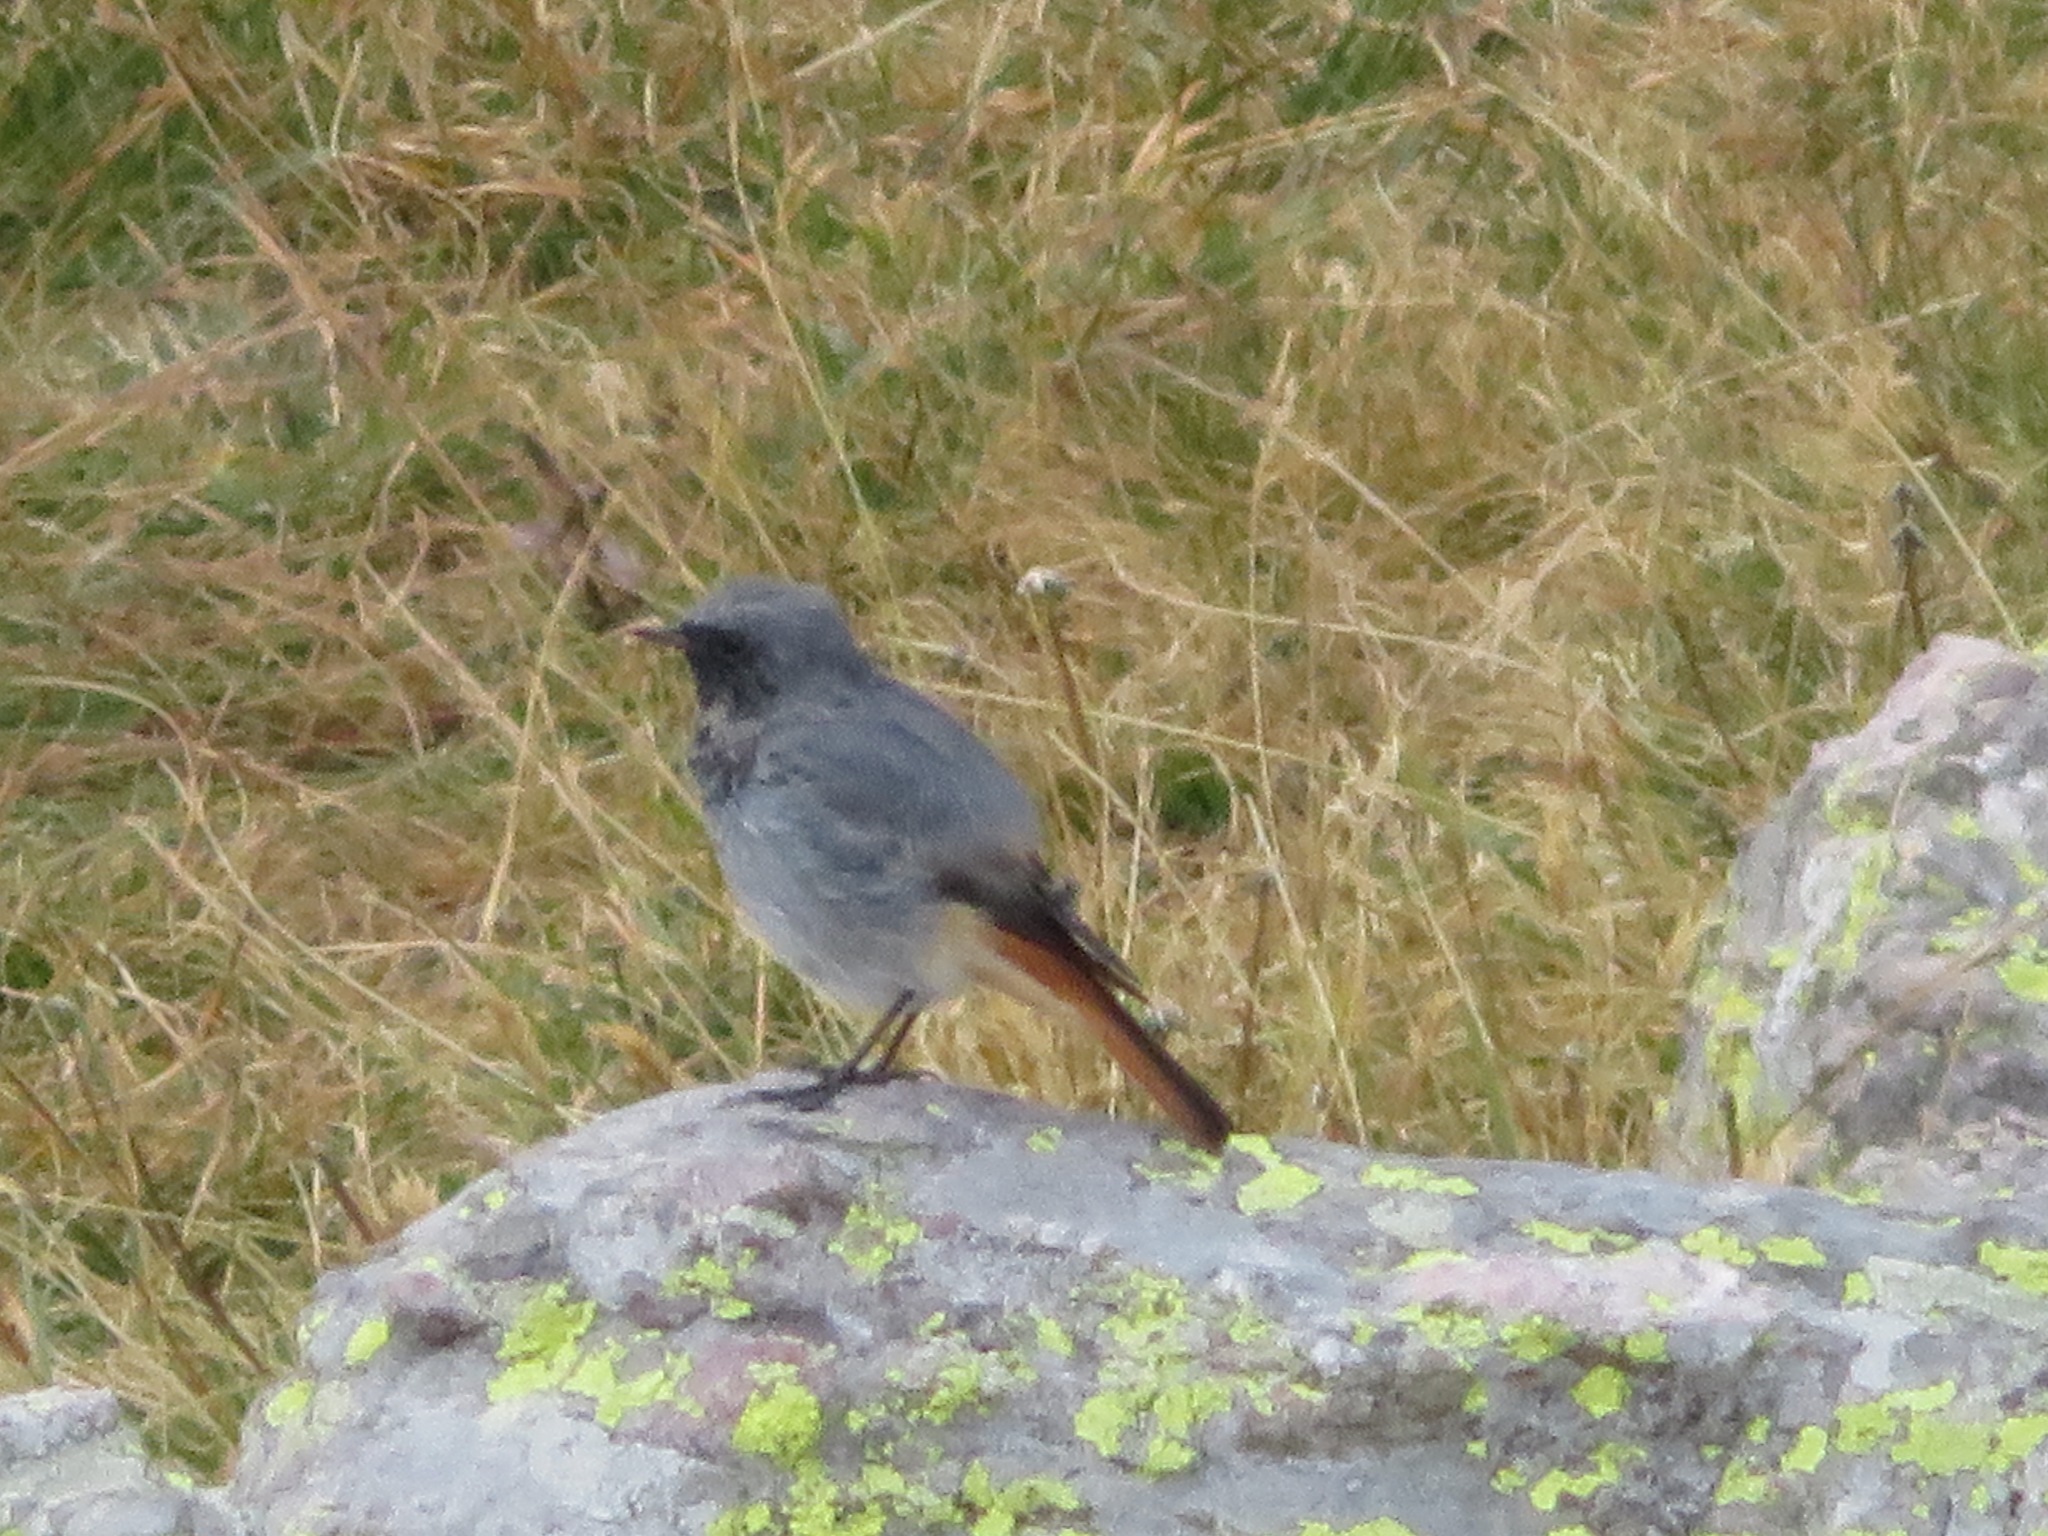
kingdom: Animalia
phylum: Chordata
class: Aves
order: Passeriformes
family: Muscicapidae
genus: Phoenicurus
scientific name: Phoenicurus ochruros
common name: Black redstart
